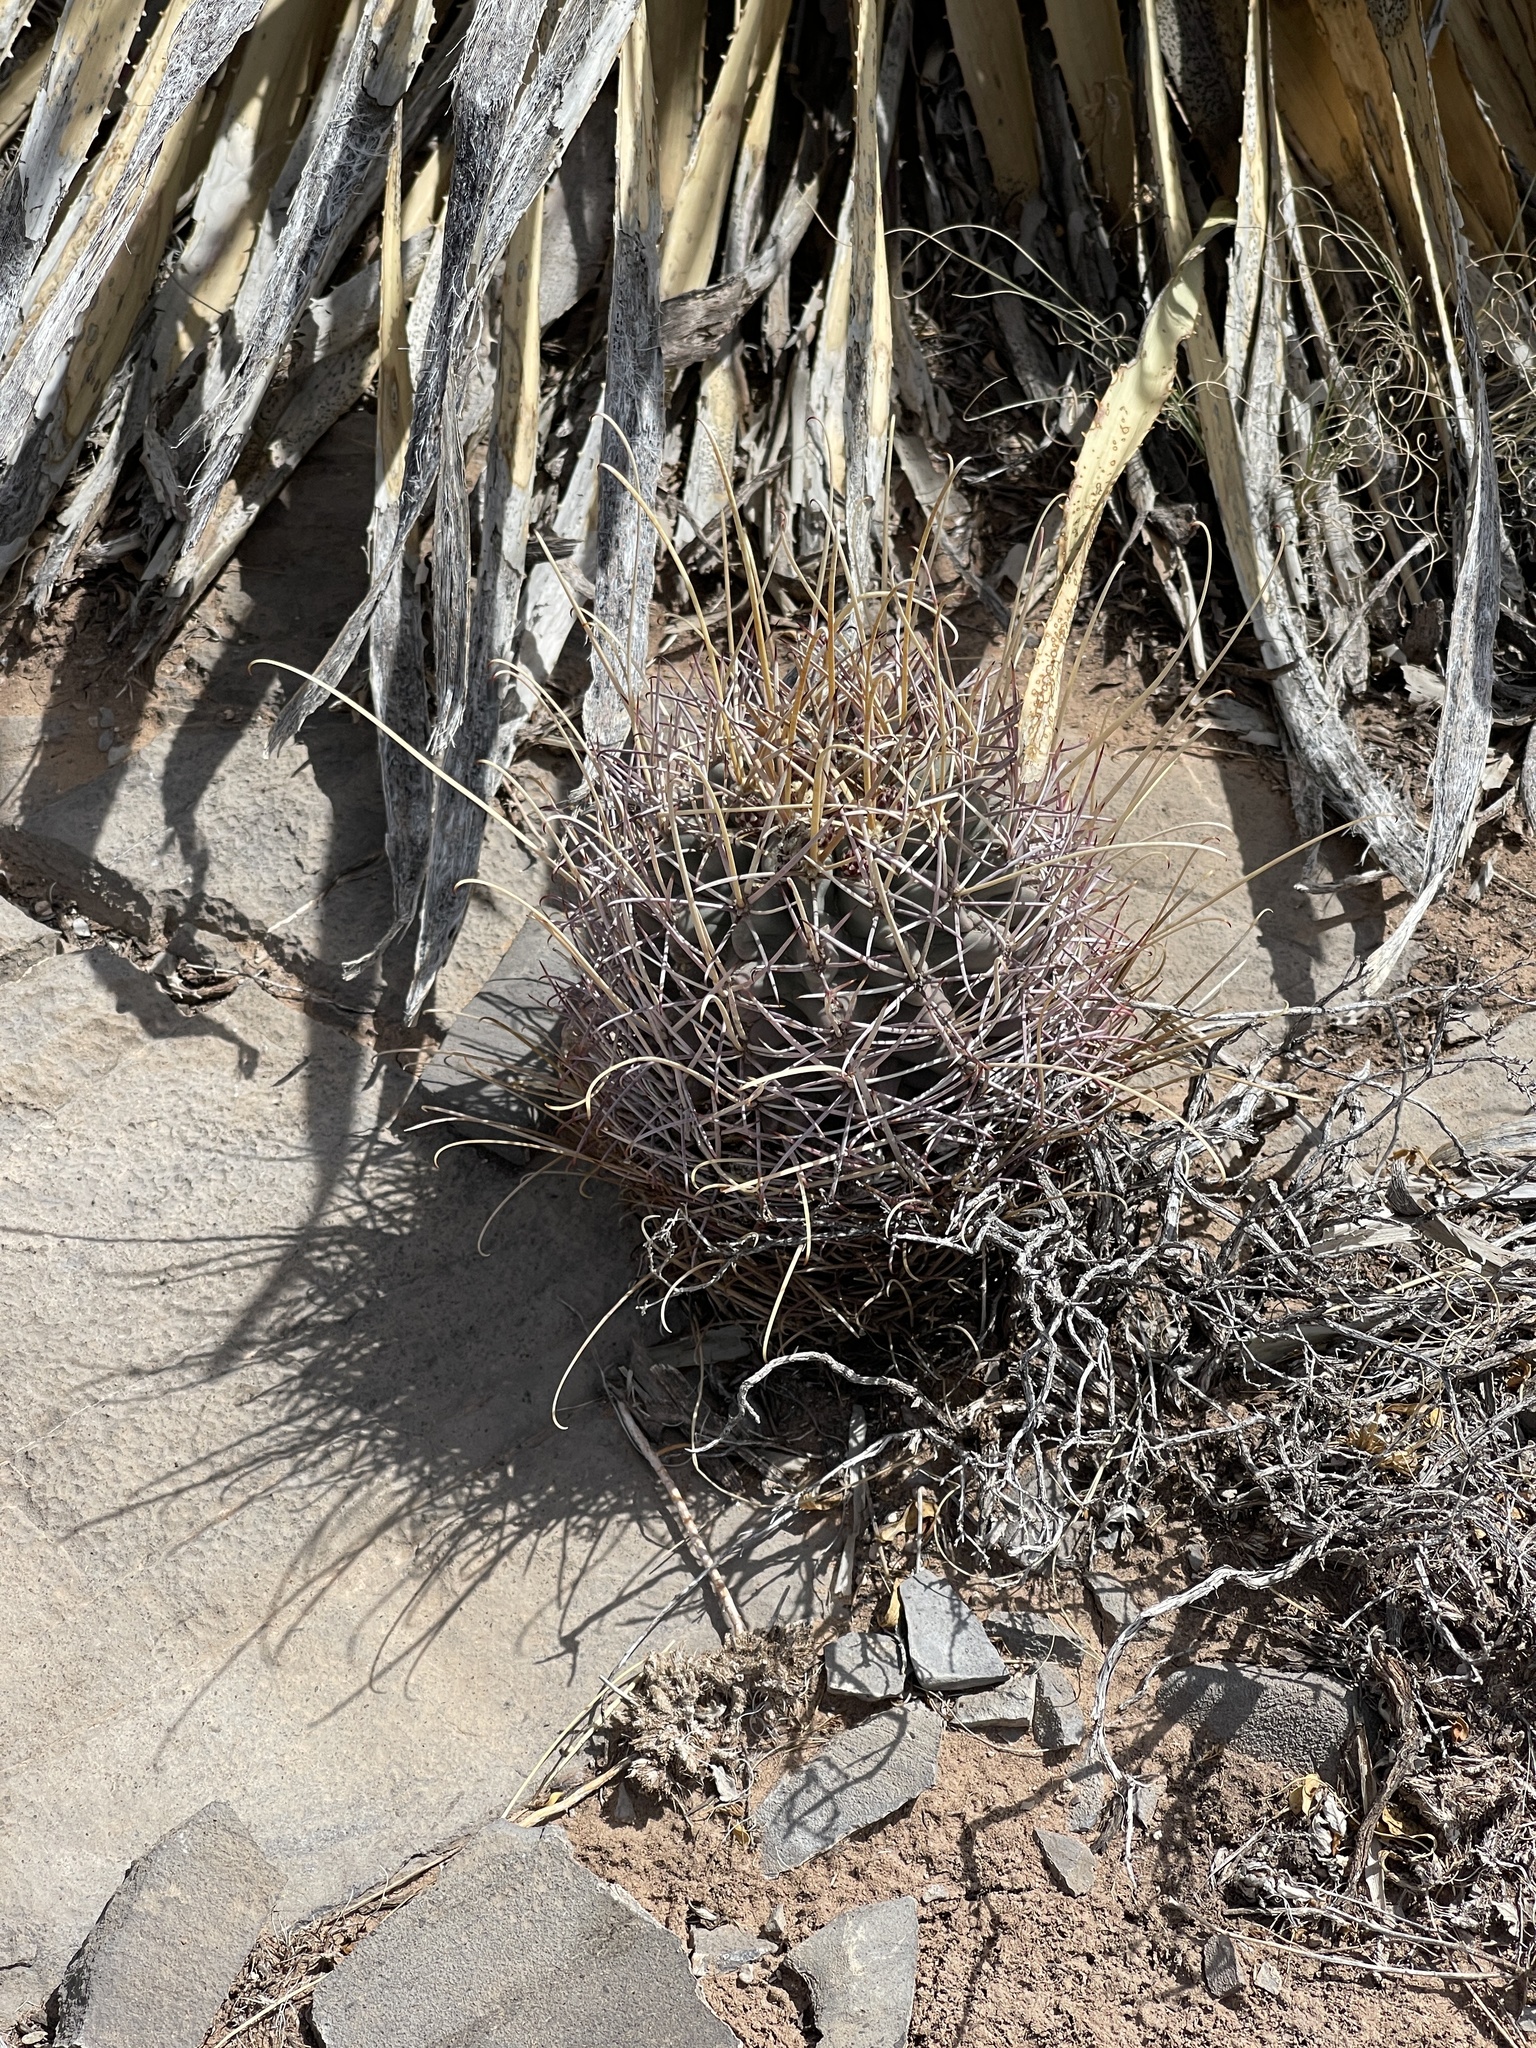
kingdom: Plantae
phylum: Tracheophyta
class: Magnoliopsida
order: Caryophyllales
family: Cactaceae
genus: Ferocactus
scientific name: Ferocactus uncinatus
